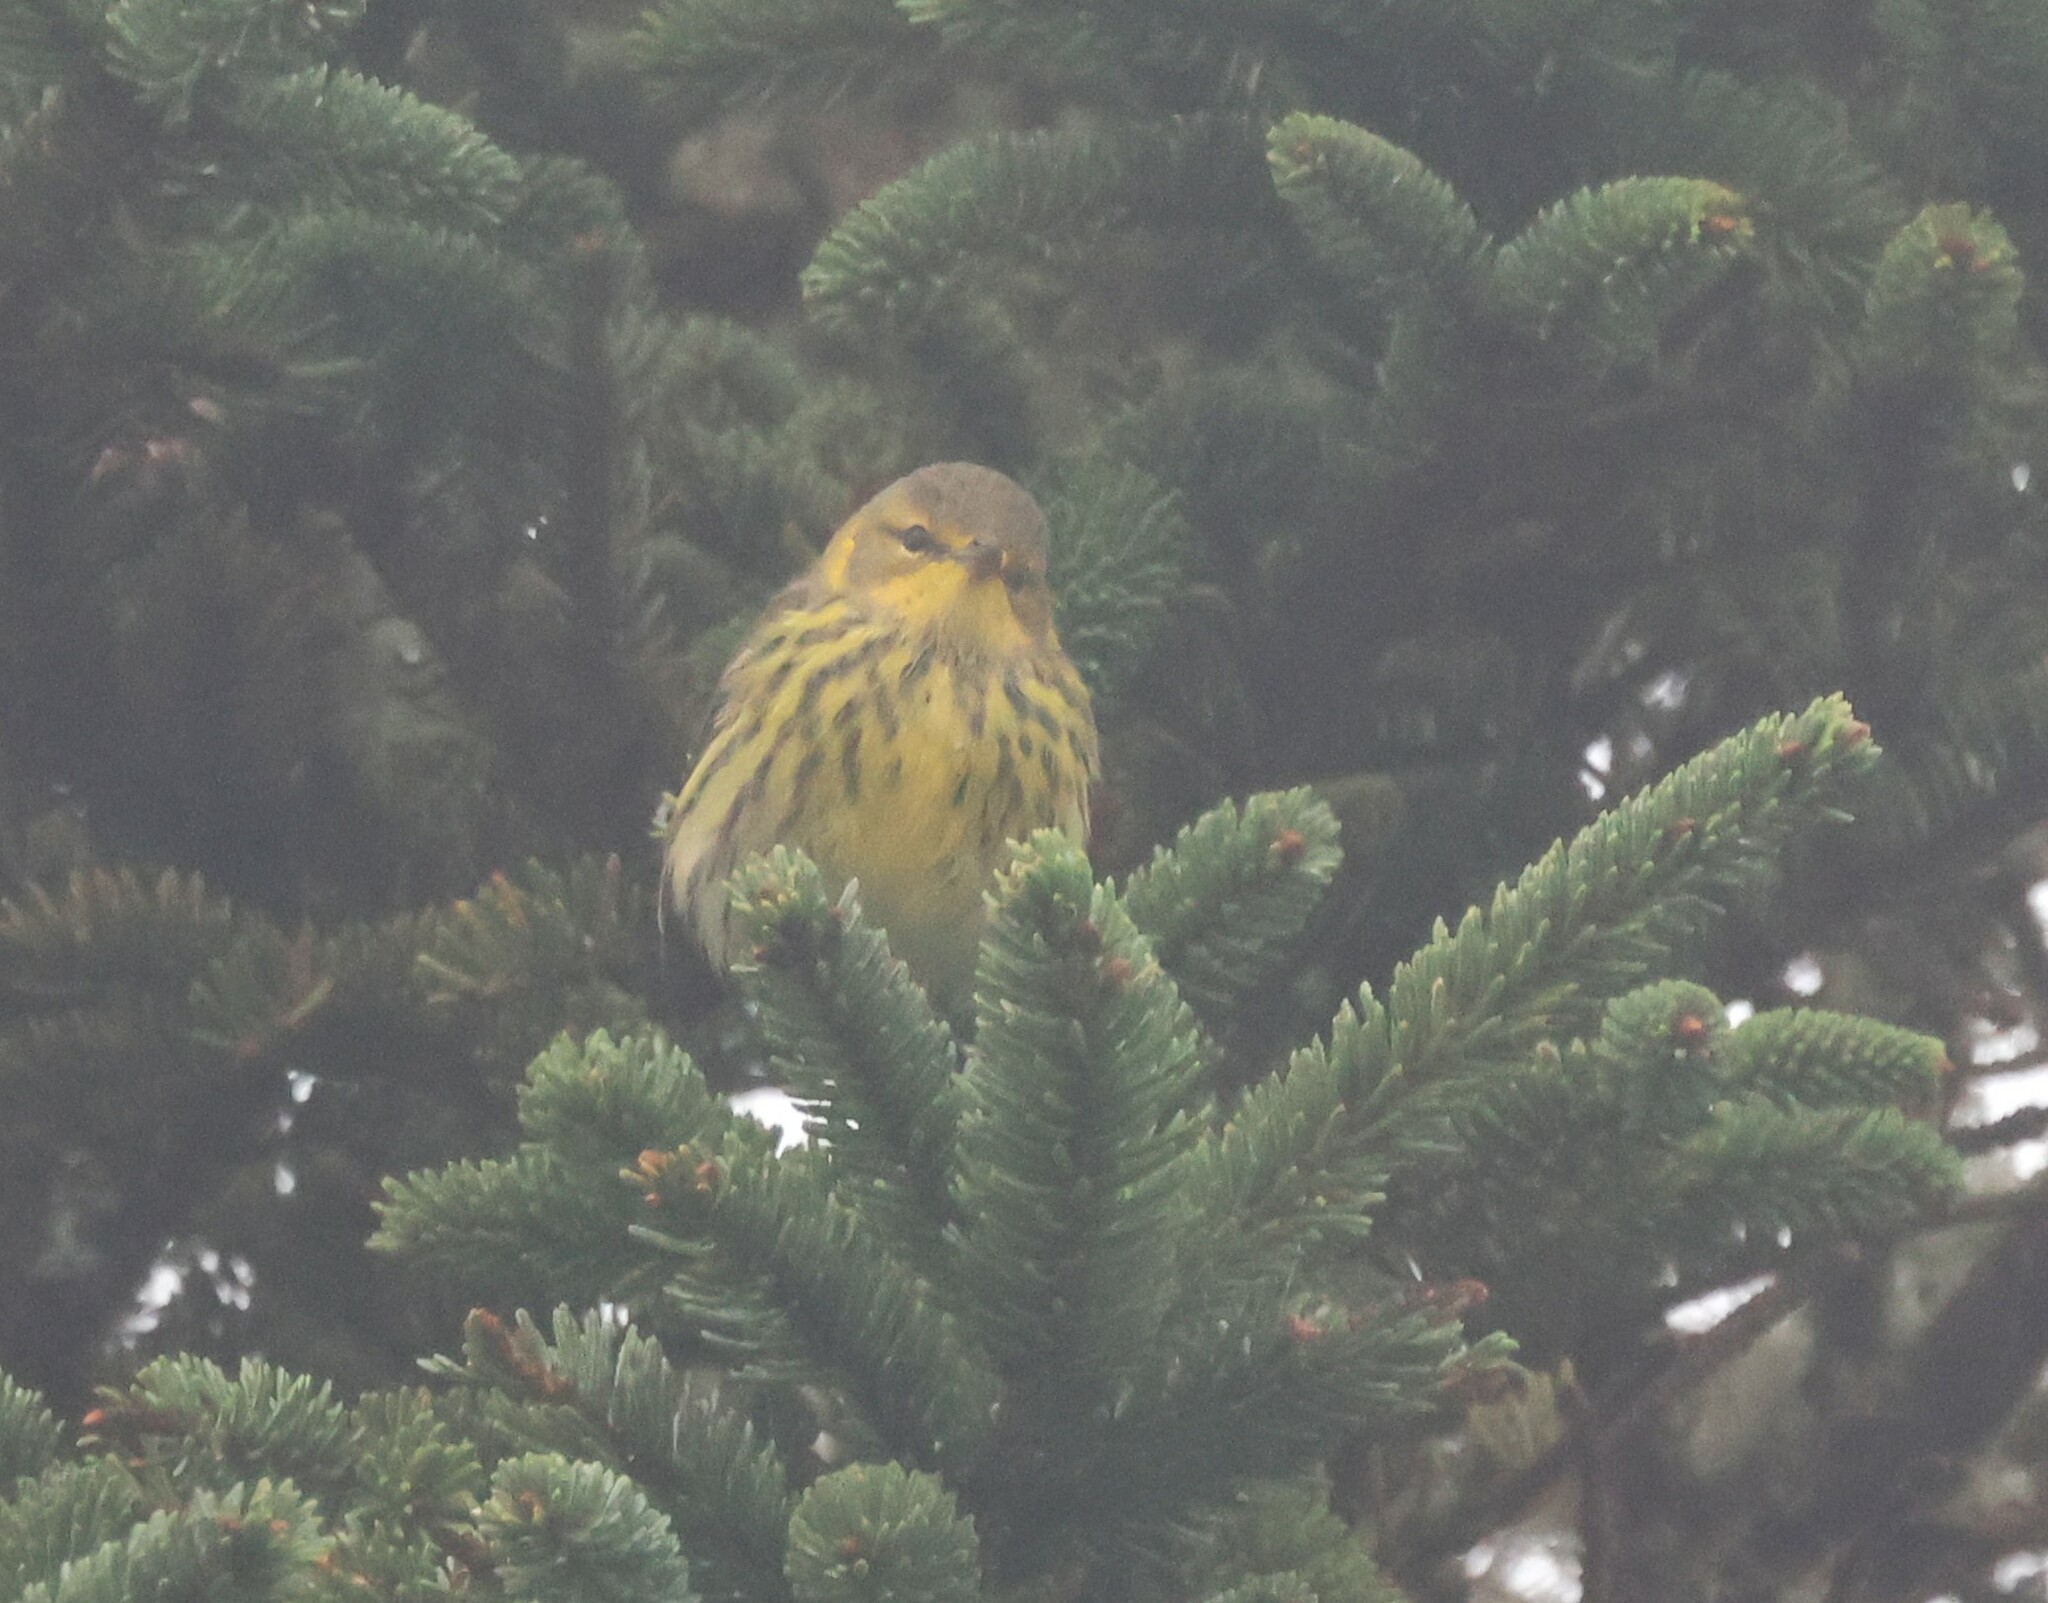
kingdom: Animalia
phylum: Chordata
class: Aves
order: Passeriformes
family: Parulidae
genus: Setophaga
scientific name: Setophaga tigrina
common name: Cape may warbler
